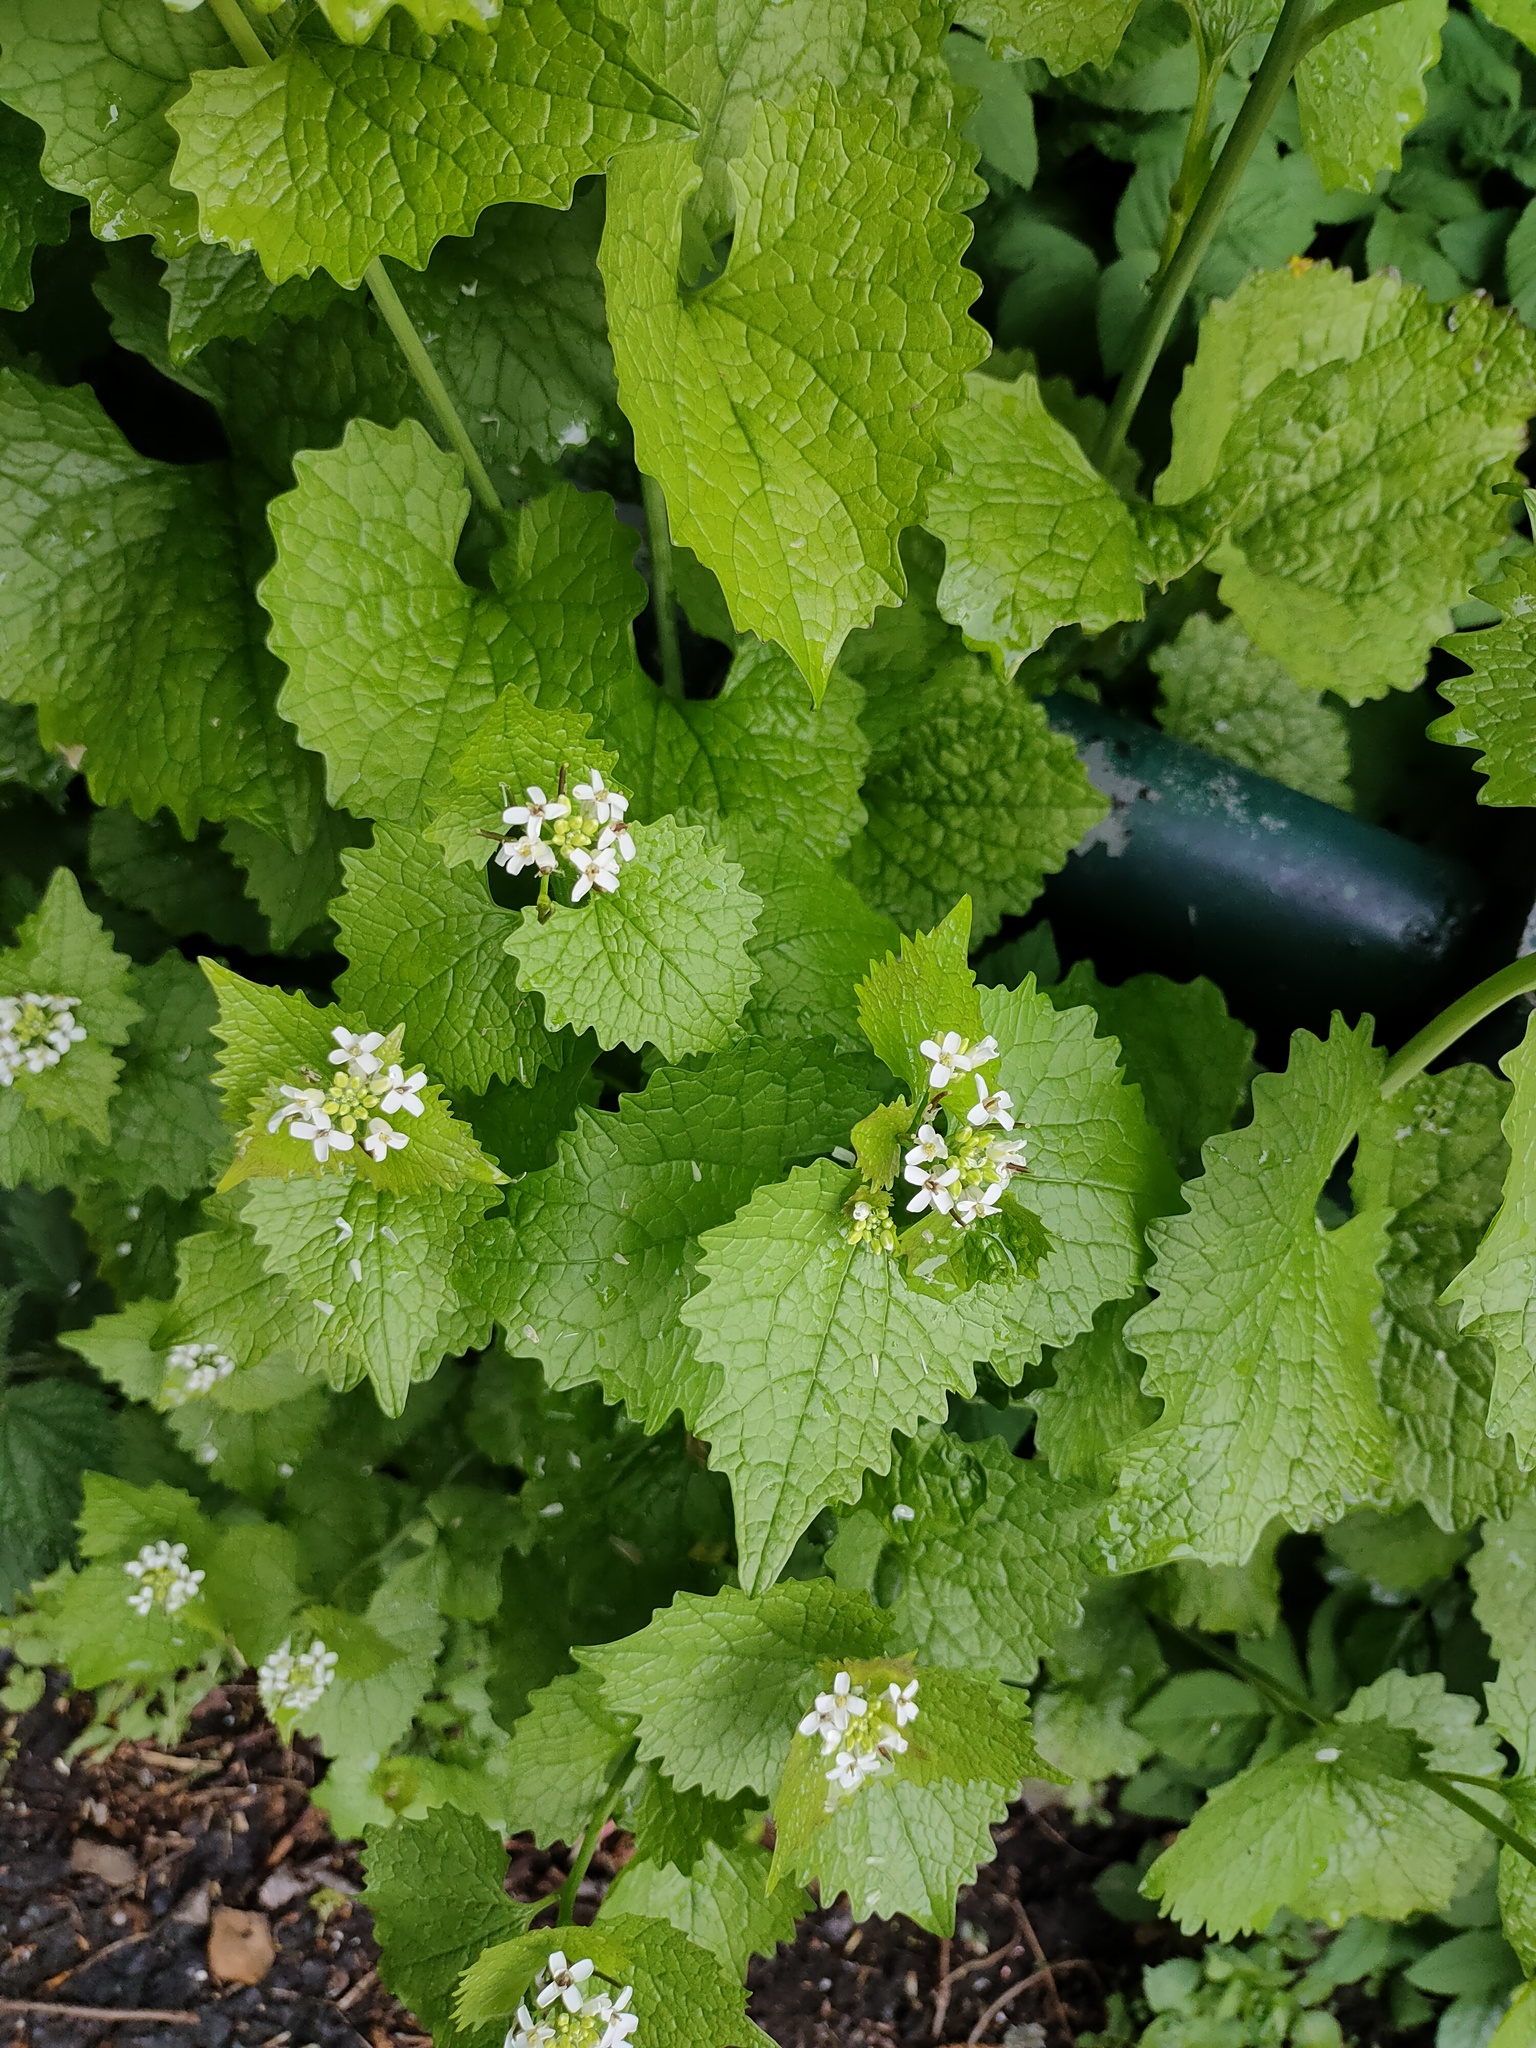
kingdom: Plantae
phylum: Tracheophyta
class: Magnoliopsida
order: Brassicales
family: Brassicaceae
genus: Alliaria
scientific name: Alliaria petiolata
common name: Garlic mustard
